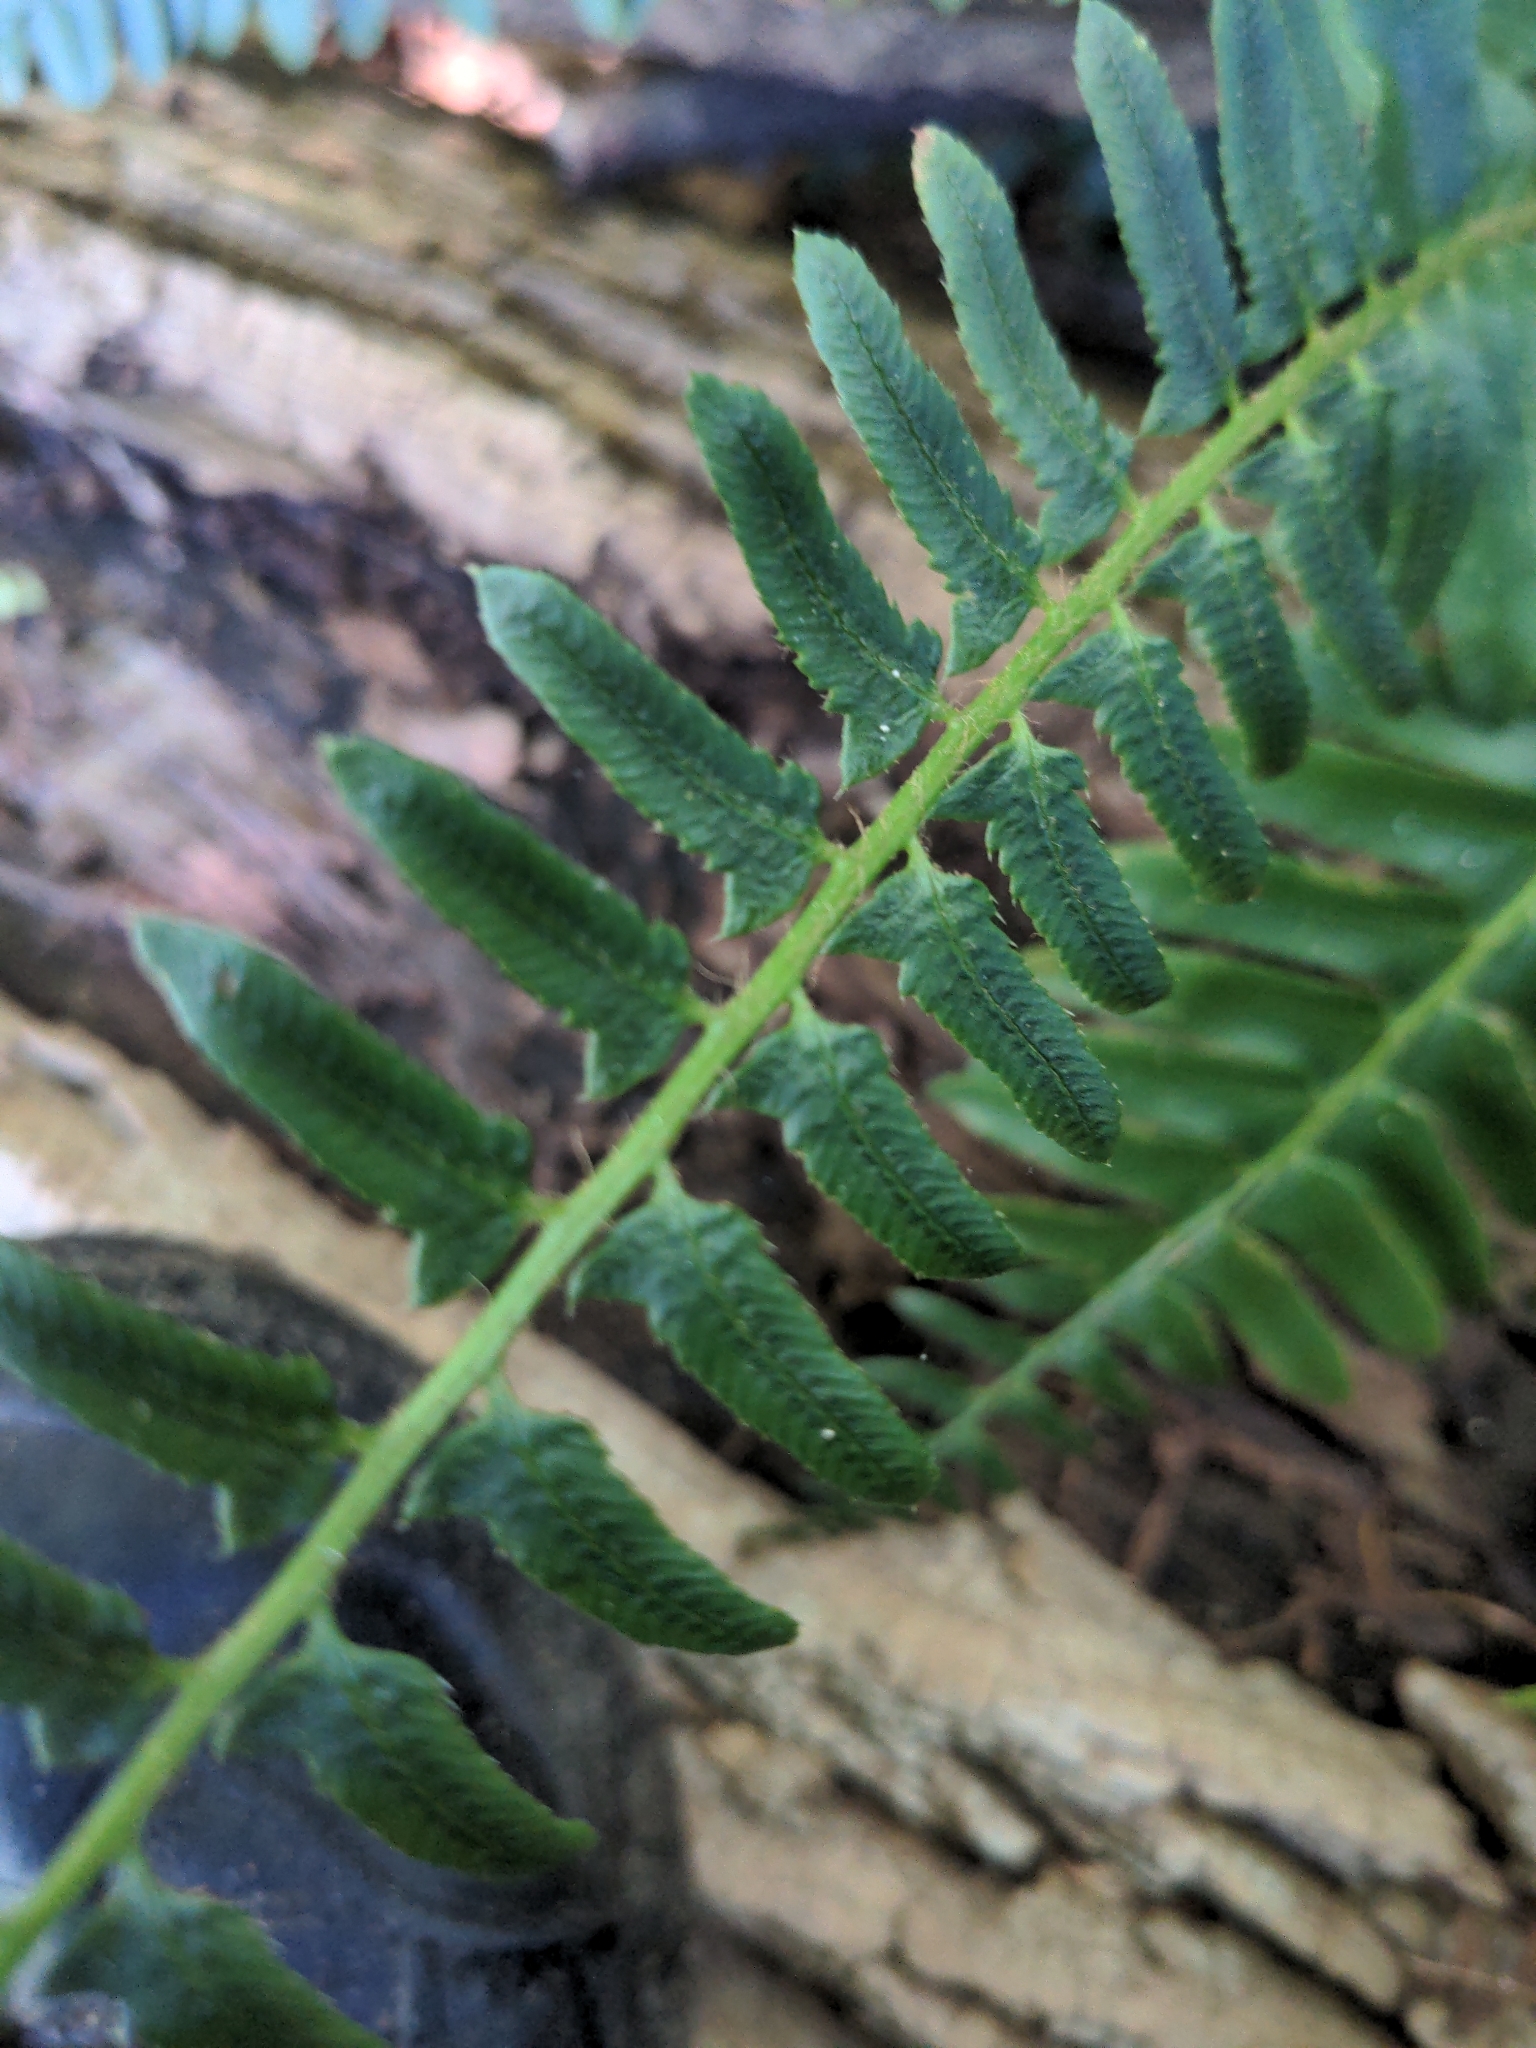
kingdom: Plantae
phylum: Tracheophyta
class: Polypodiopsida
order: Polypodiales
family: Dryopteridaceae
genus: Polystichum
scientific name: Polystichum acrostichoides
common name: Christmas fern
